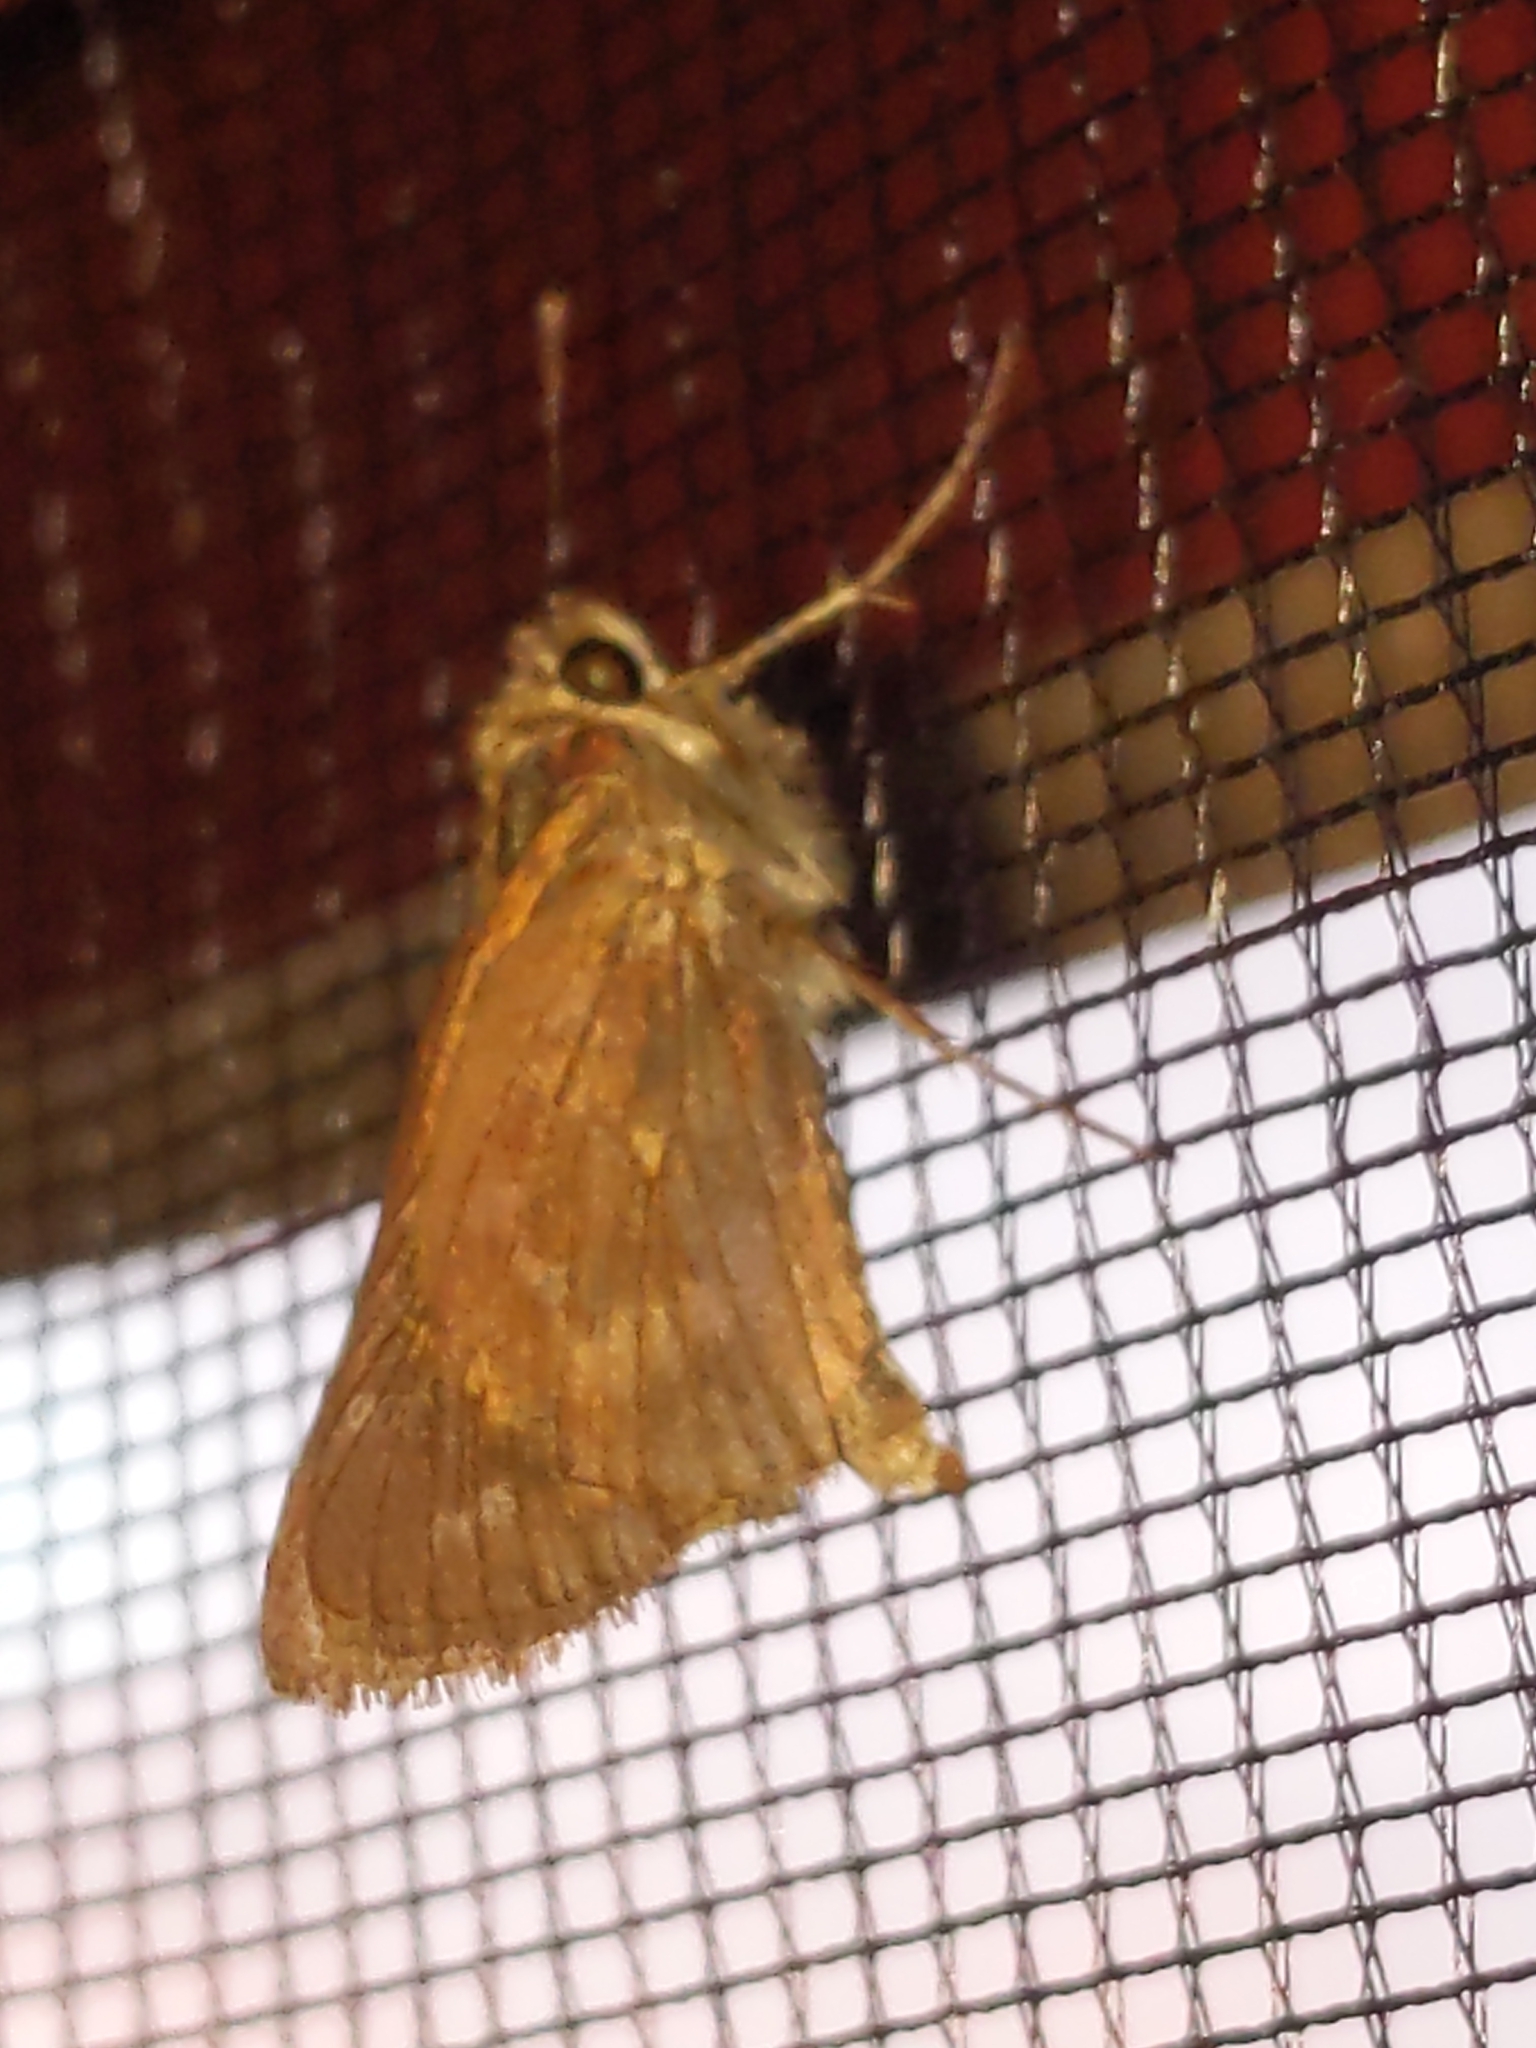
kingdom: Animalia
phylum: Arthropoda
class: Insecta
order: Lepidoptera
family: Hesperiidae
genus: Atalopedes
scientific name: Atalopedes
